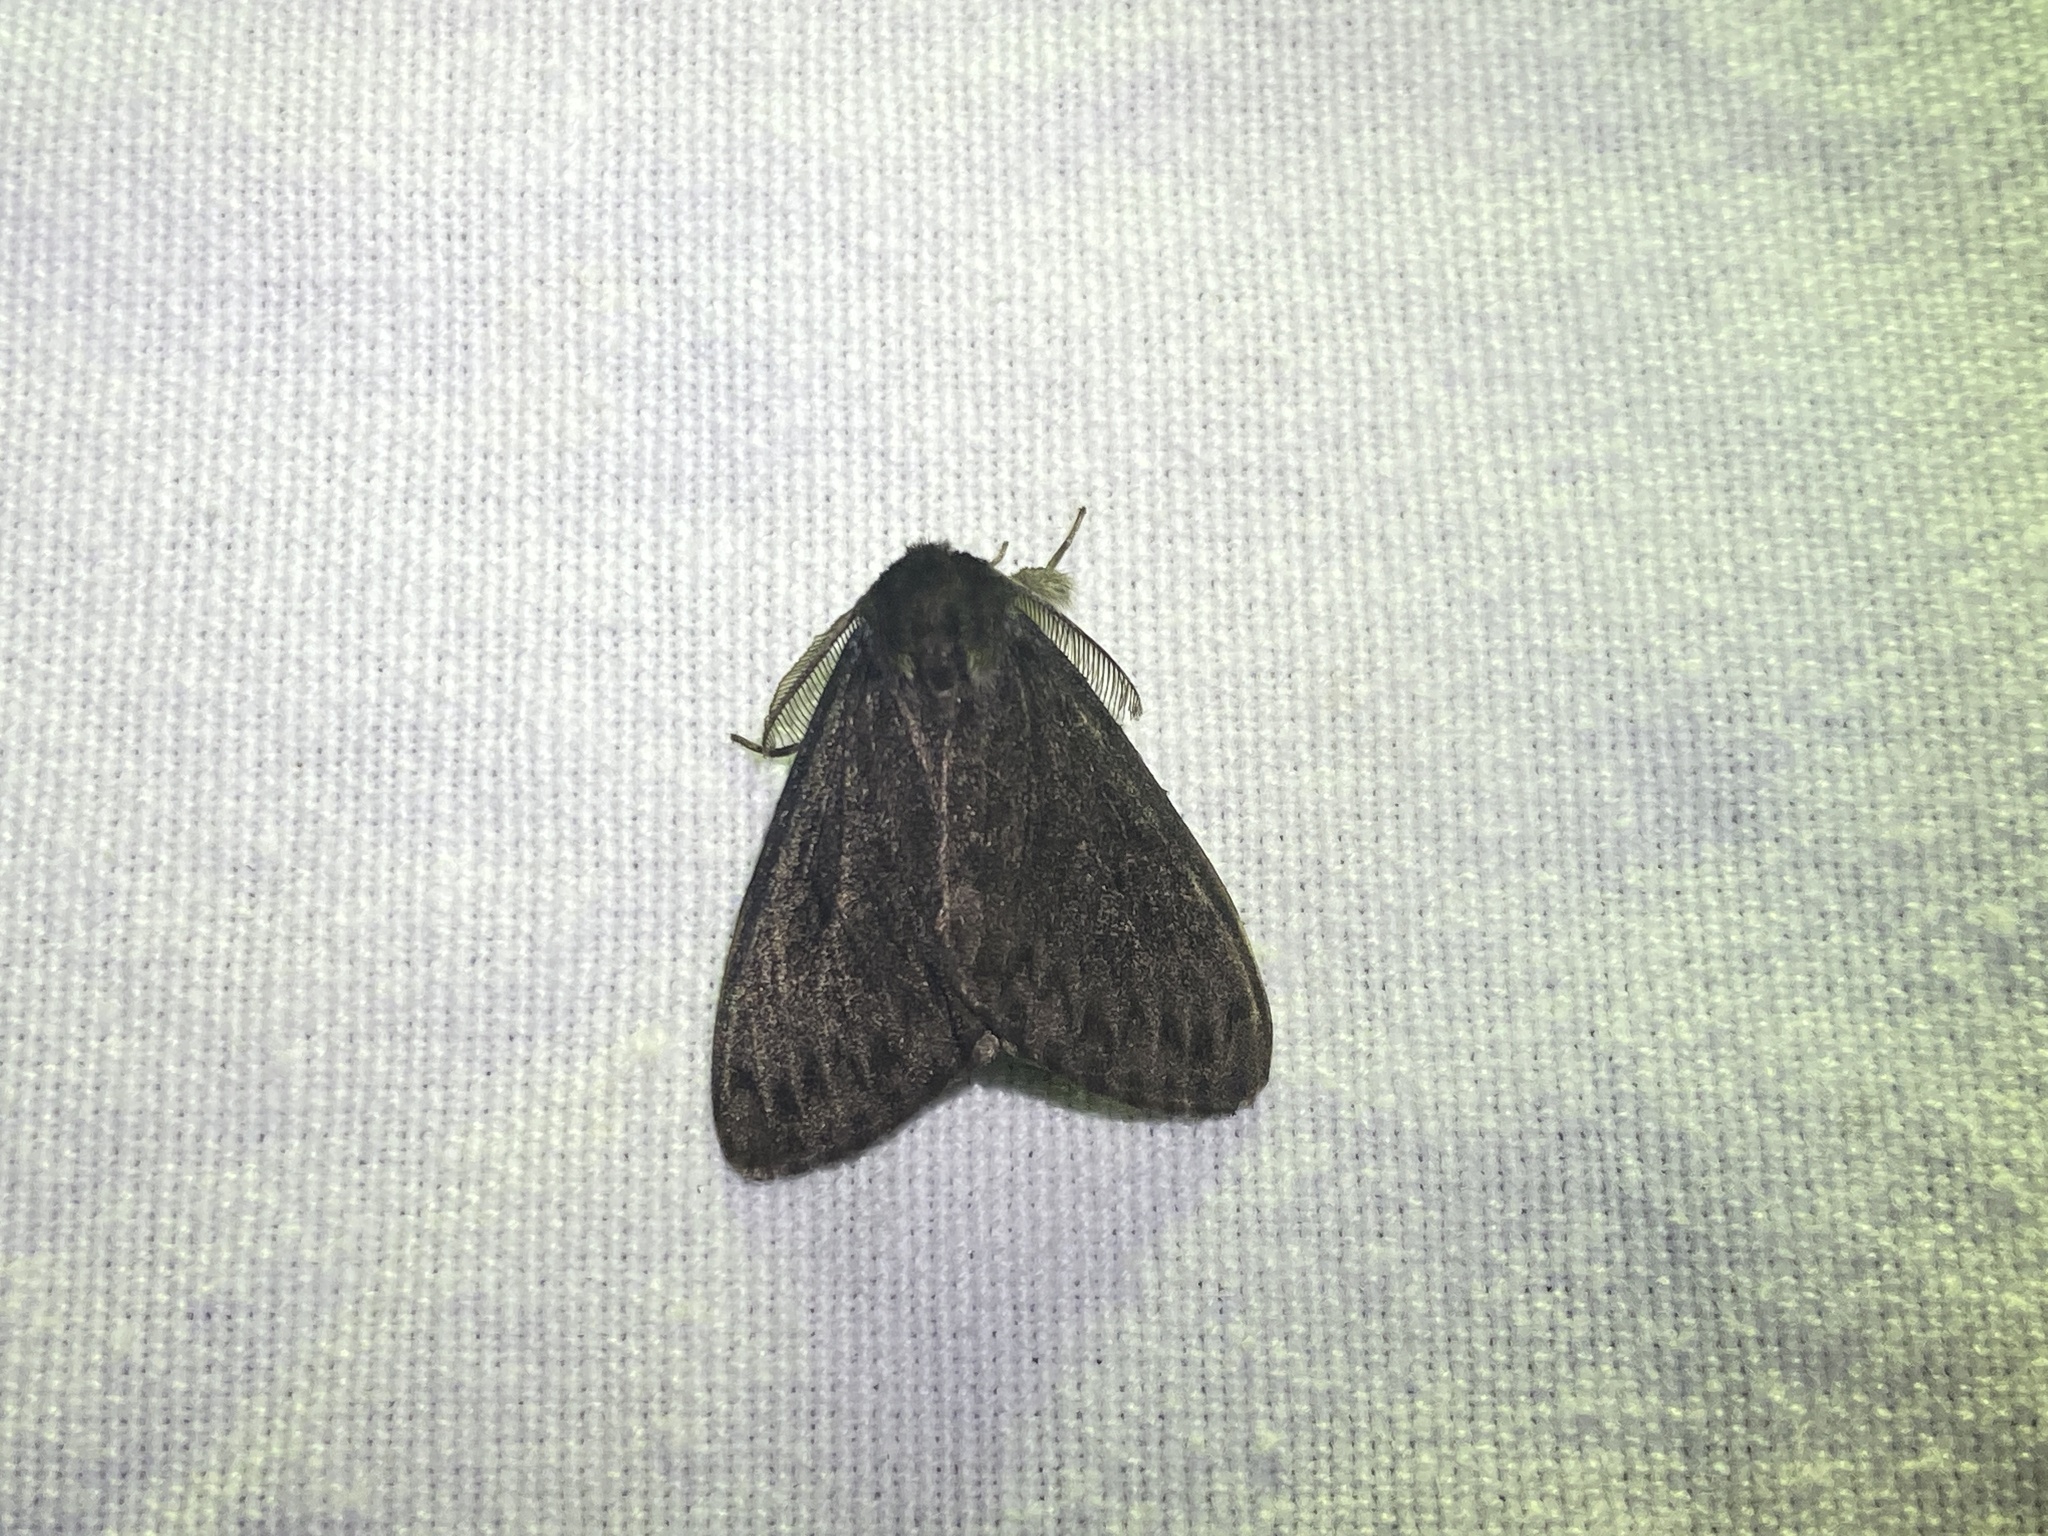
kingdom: Animalia
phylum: Arthropoda
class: Insecta
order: Lepidoptera
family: Erebidae
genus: Lymantria
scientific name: Lymantria monacha
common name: Black arches
